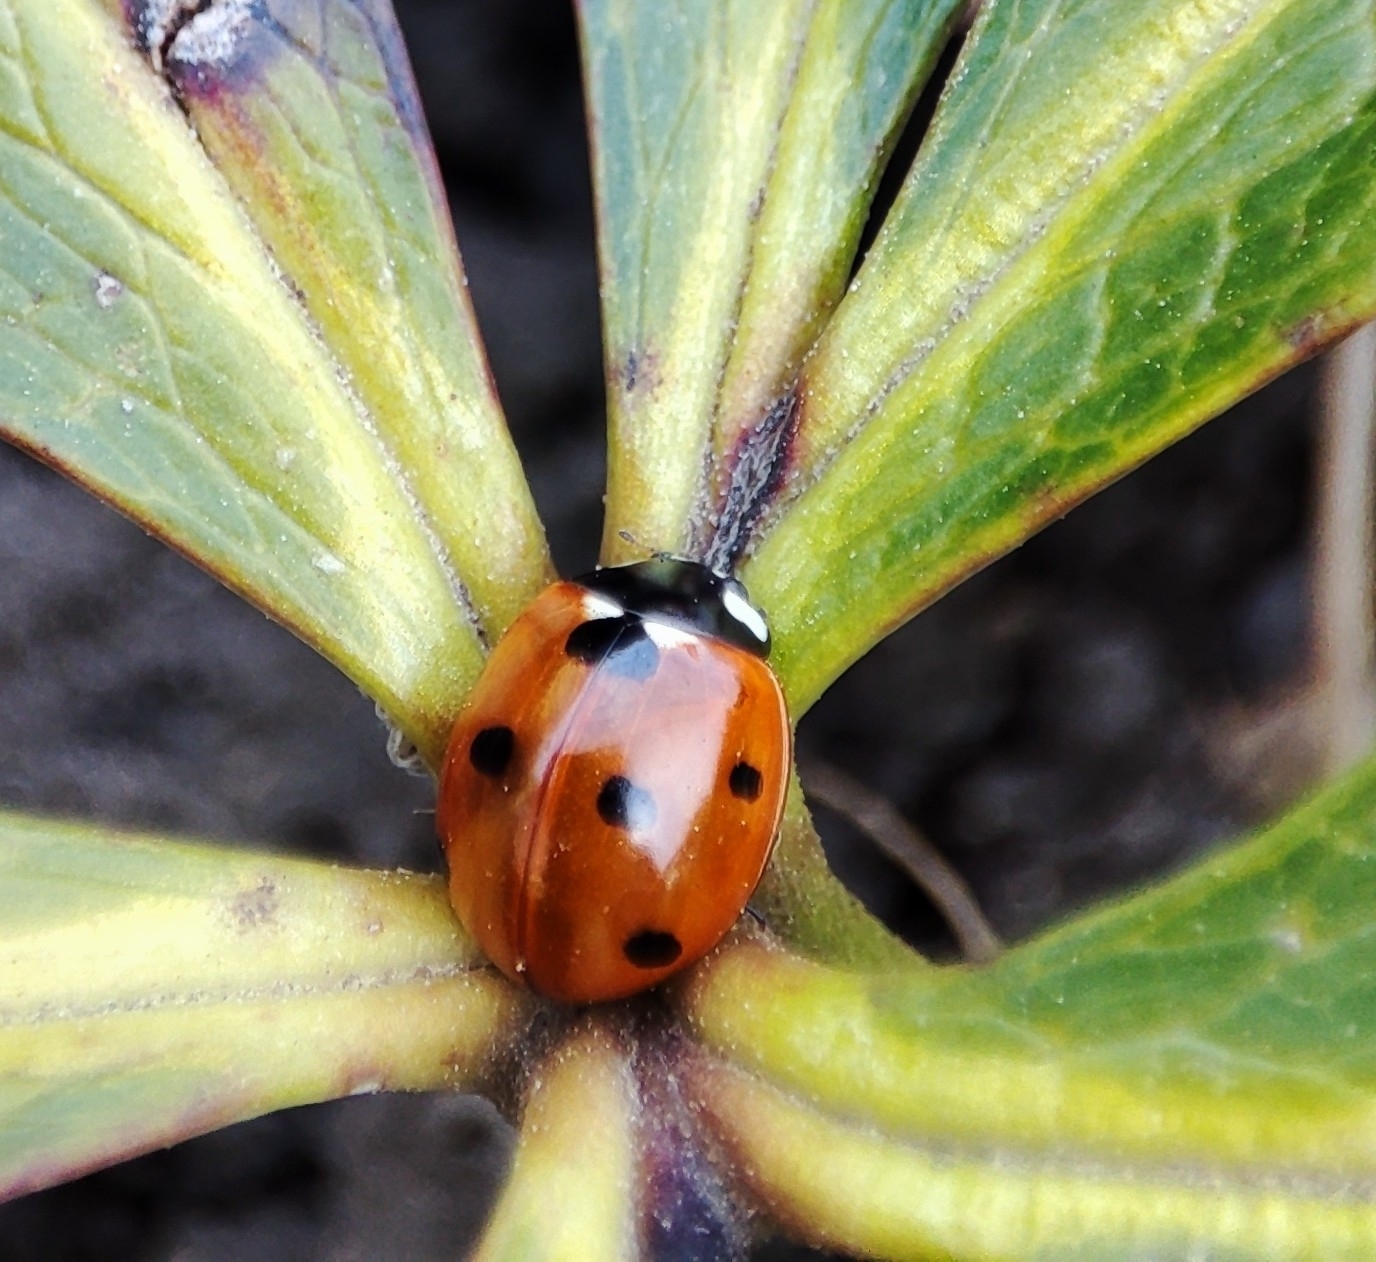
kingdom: Animalia
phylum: Arthropoda
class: Insecta
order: Coleoptera
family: Coccinellidae
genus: Coccinella
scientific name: Coccinella septempunctata
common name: Sevenspotted lady beetle
